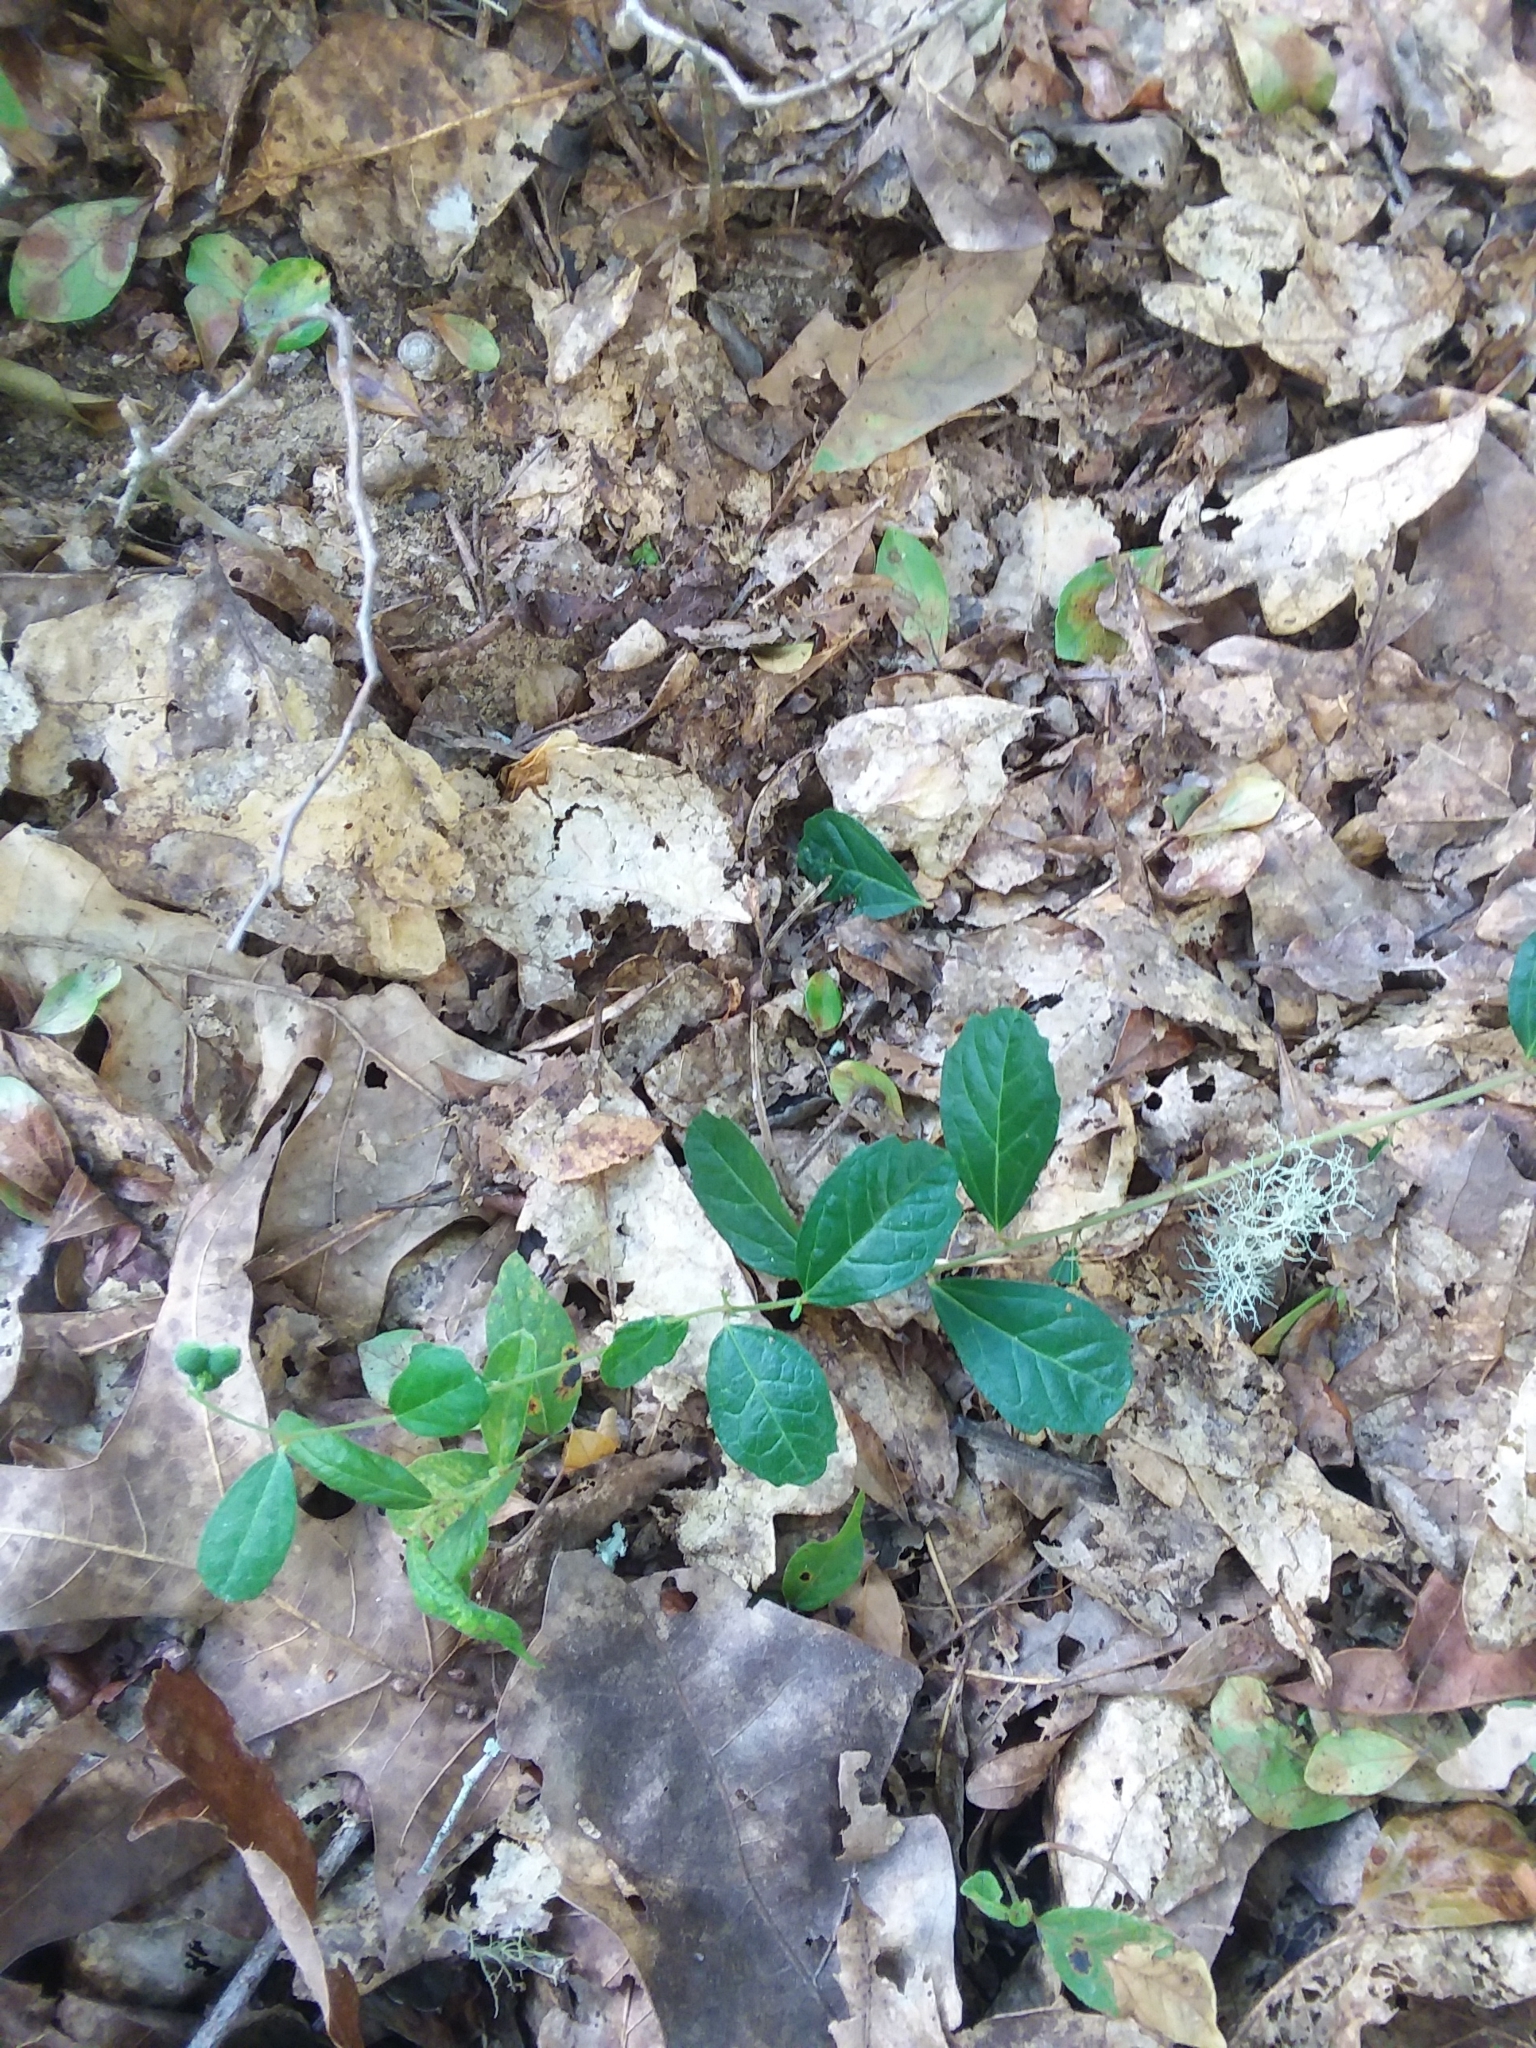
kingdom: Plantae
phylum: Tracheophyta
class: Magnoliopsida
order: Malpighiales
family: Euphorbiaceae
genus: Tragia
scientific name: Tragia urens
